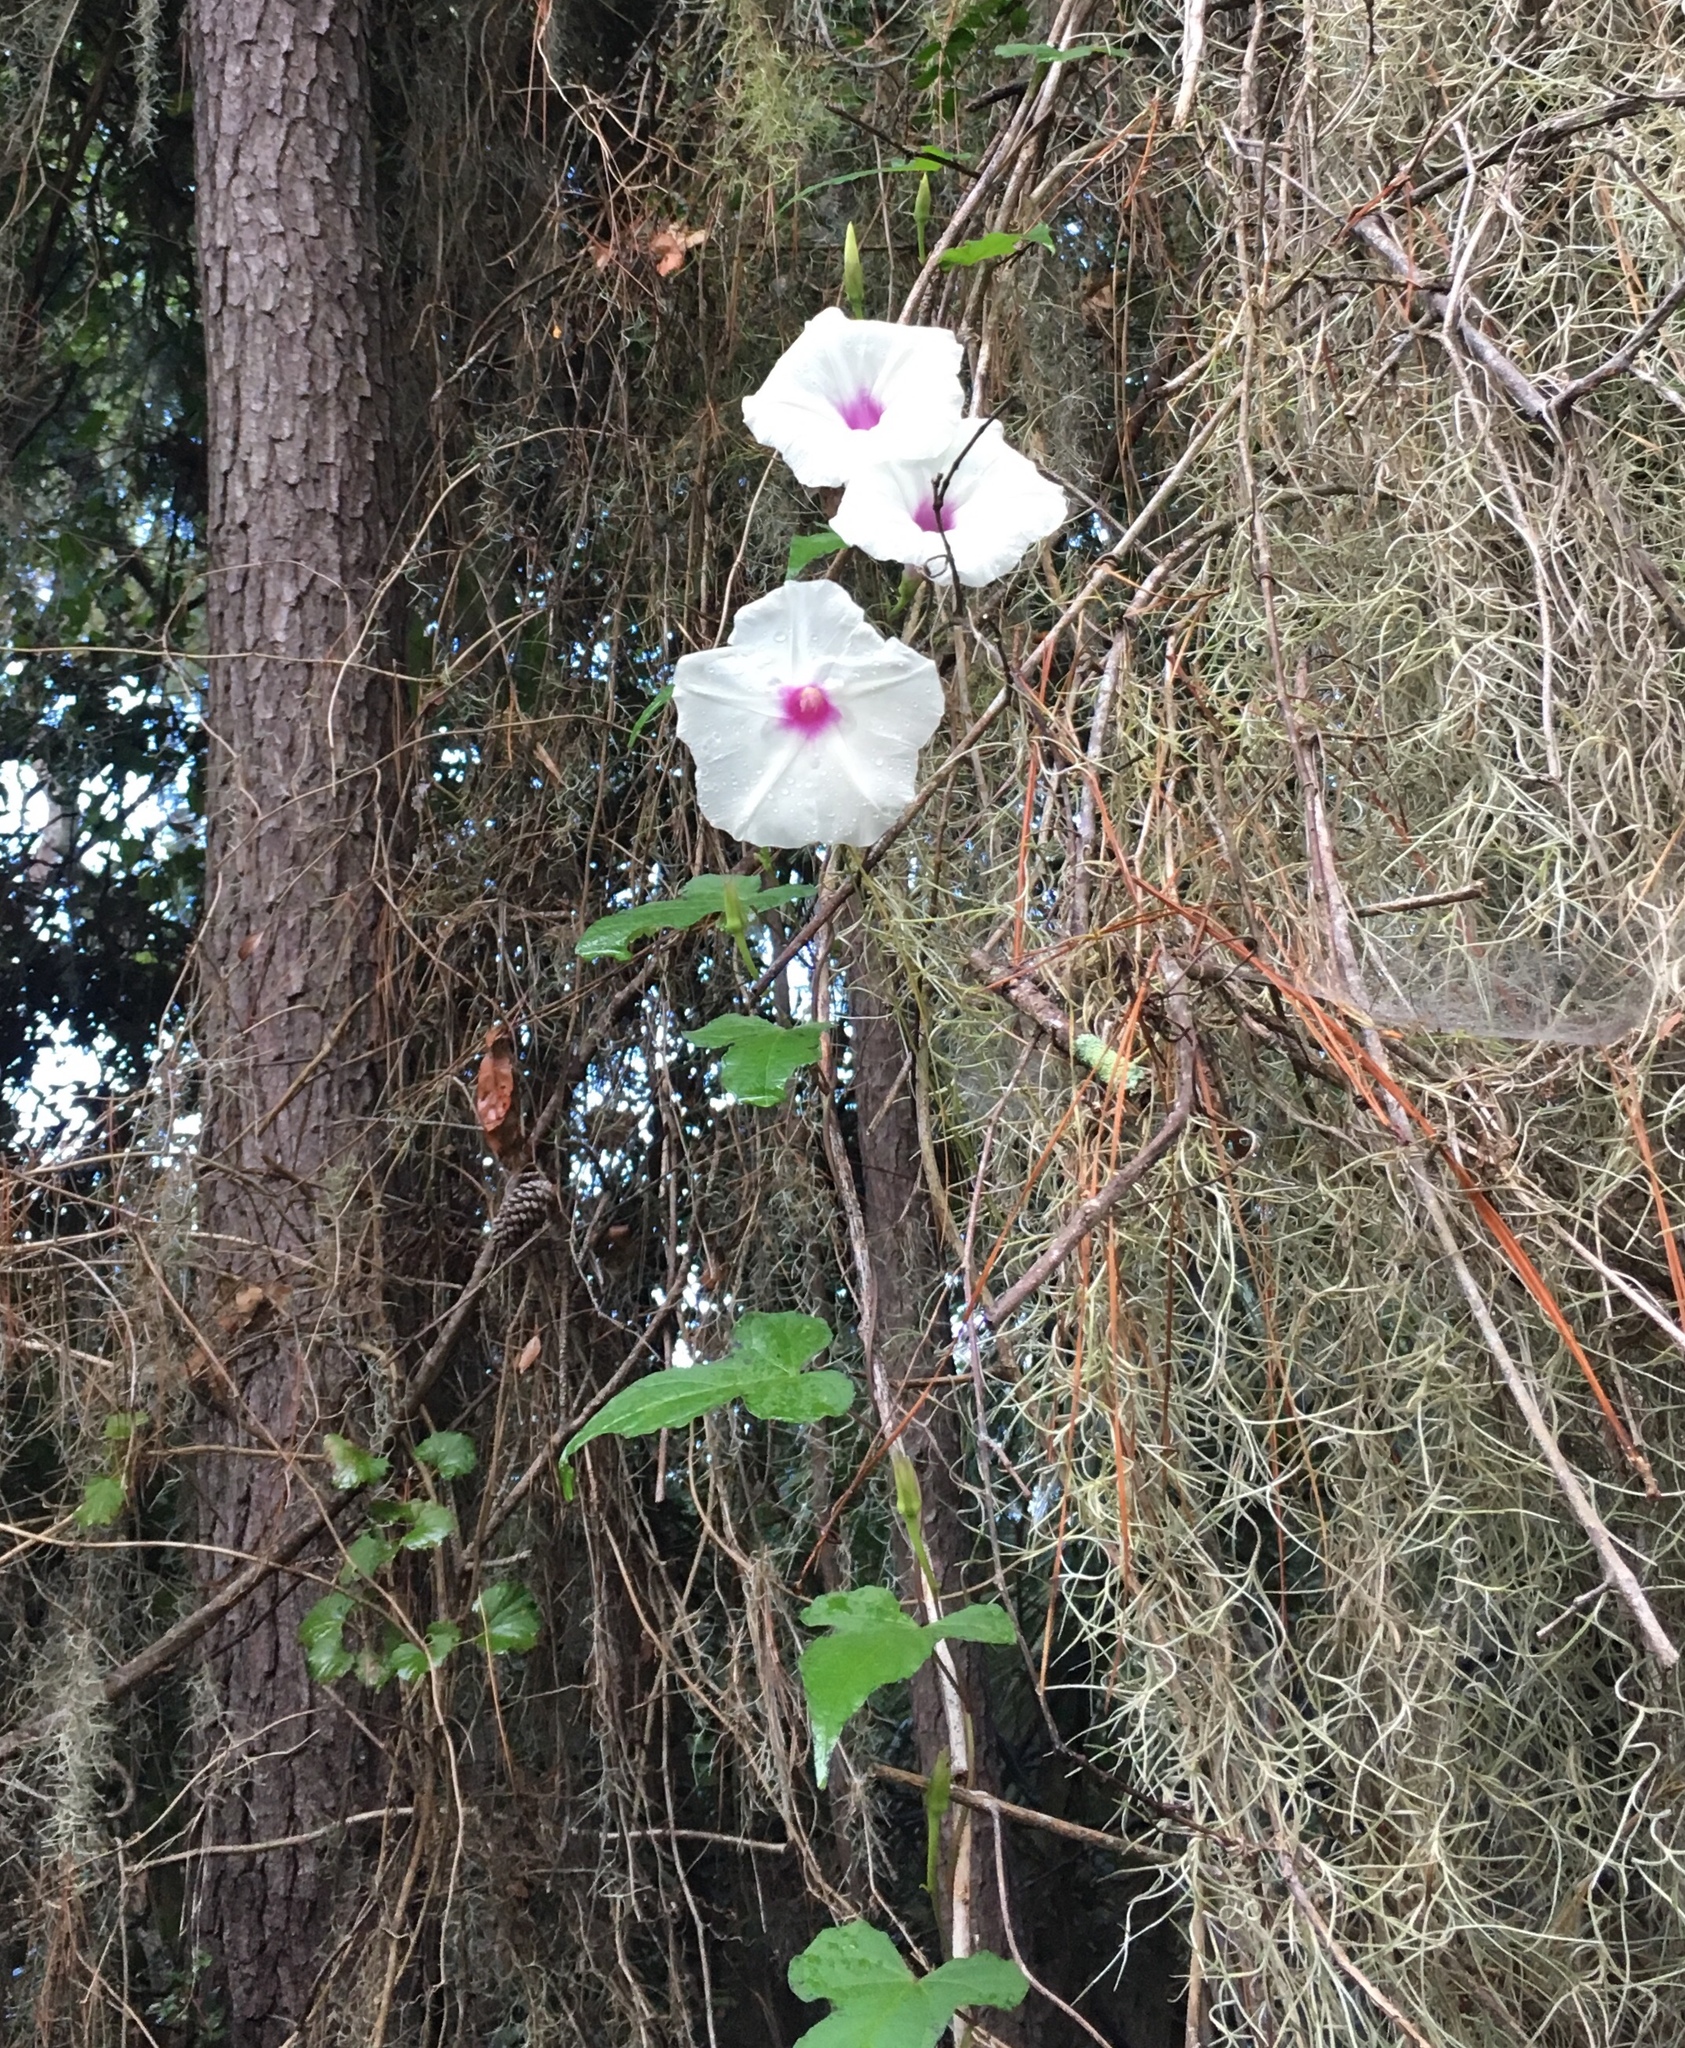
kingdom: Plantae
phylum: Tracheophyta
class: Magnoliopsida
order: Solanales
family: Convolvulaceae
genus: Ipomoea
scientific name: Ipomoea pandurata
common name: Man-of-the-earth
